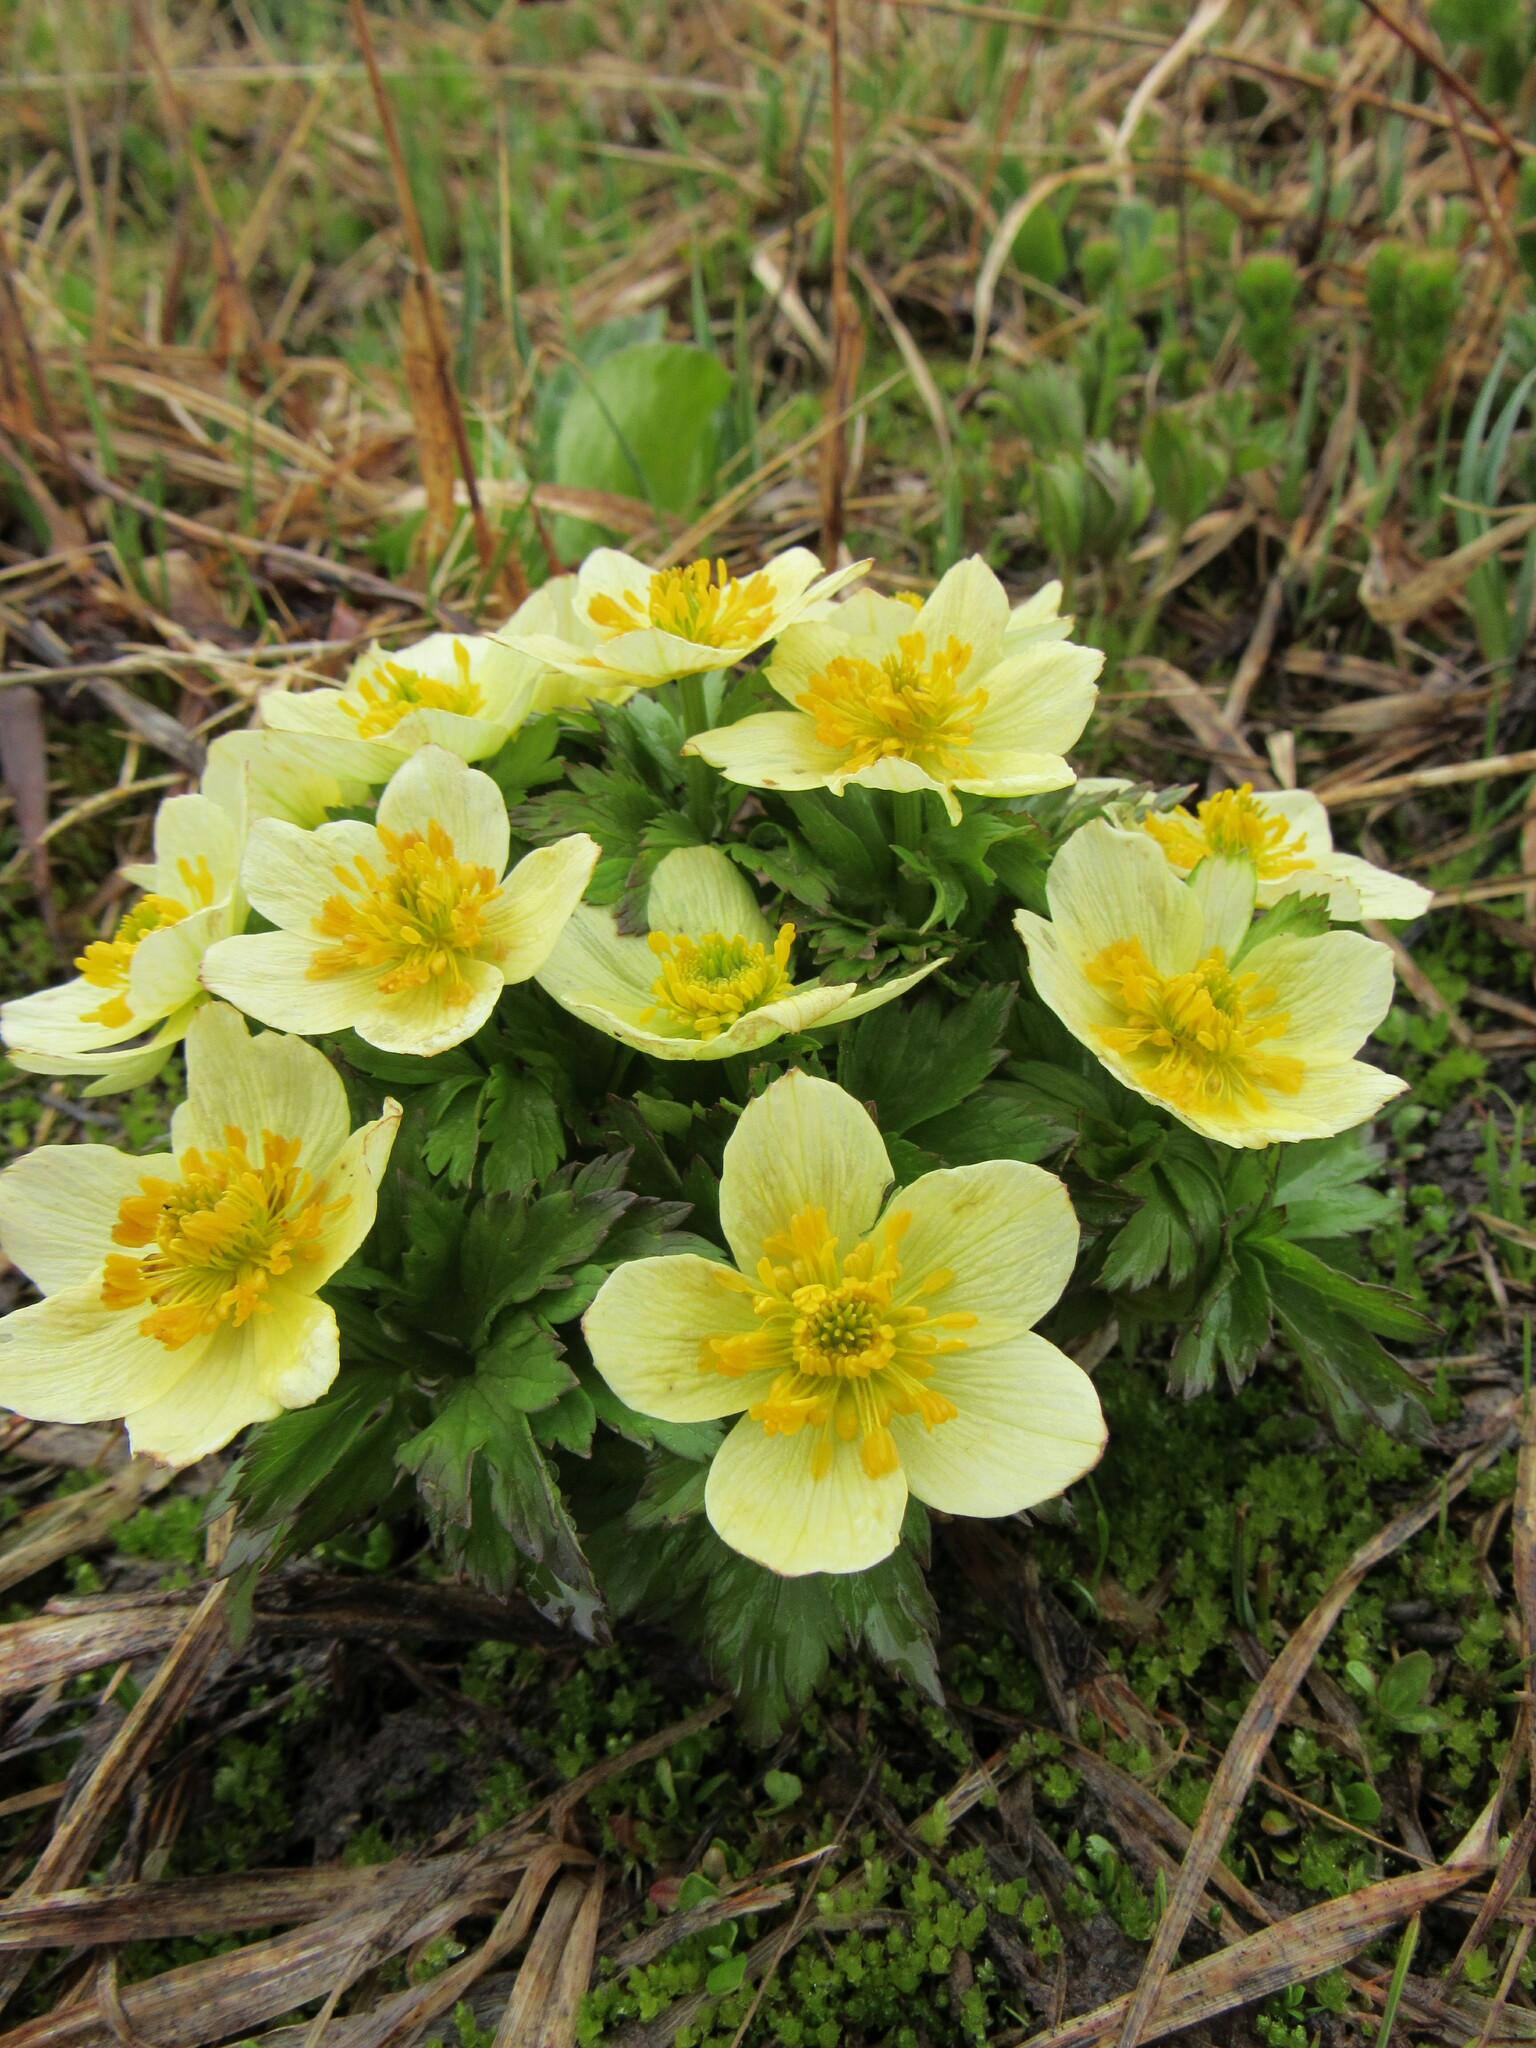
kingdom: Plantae
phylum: Tracheophyta
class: Magnoliopsida
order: Ranunculales
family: Ranunculaceae
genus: Trollius
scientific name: Trollius laxus
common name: American globeflower
